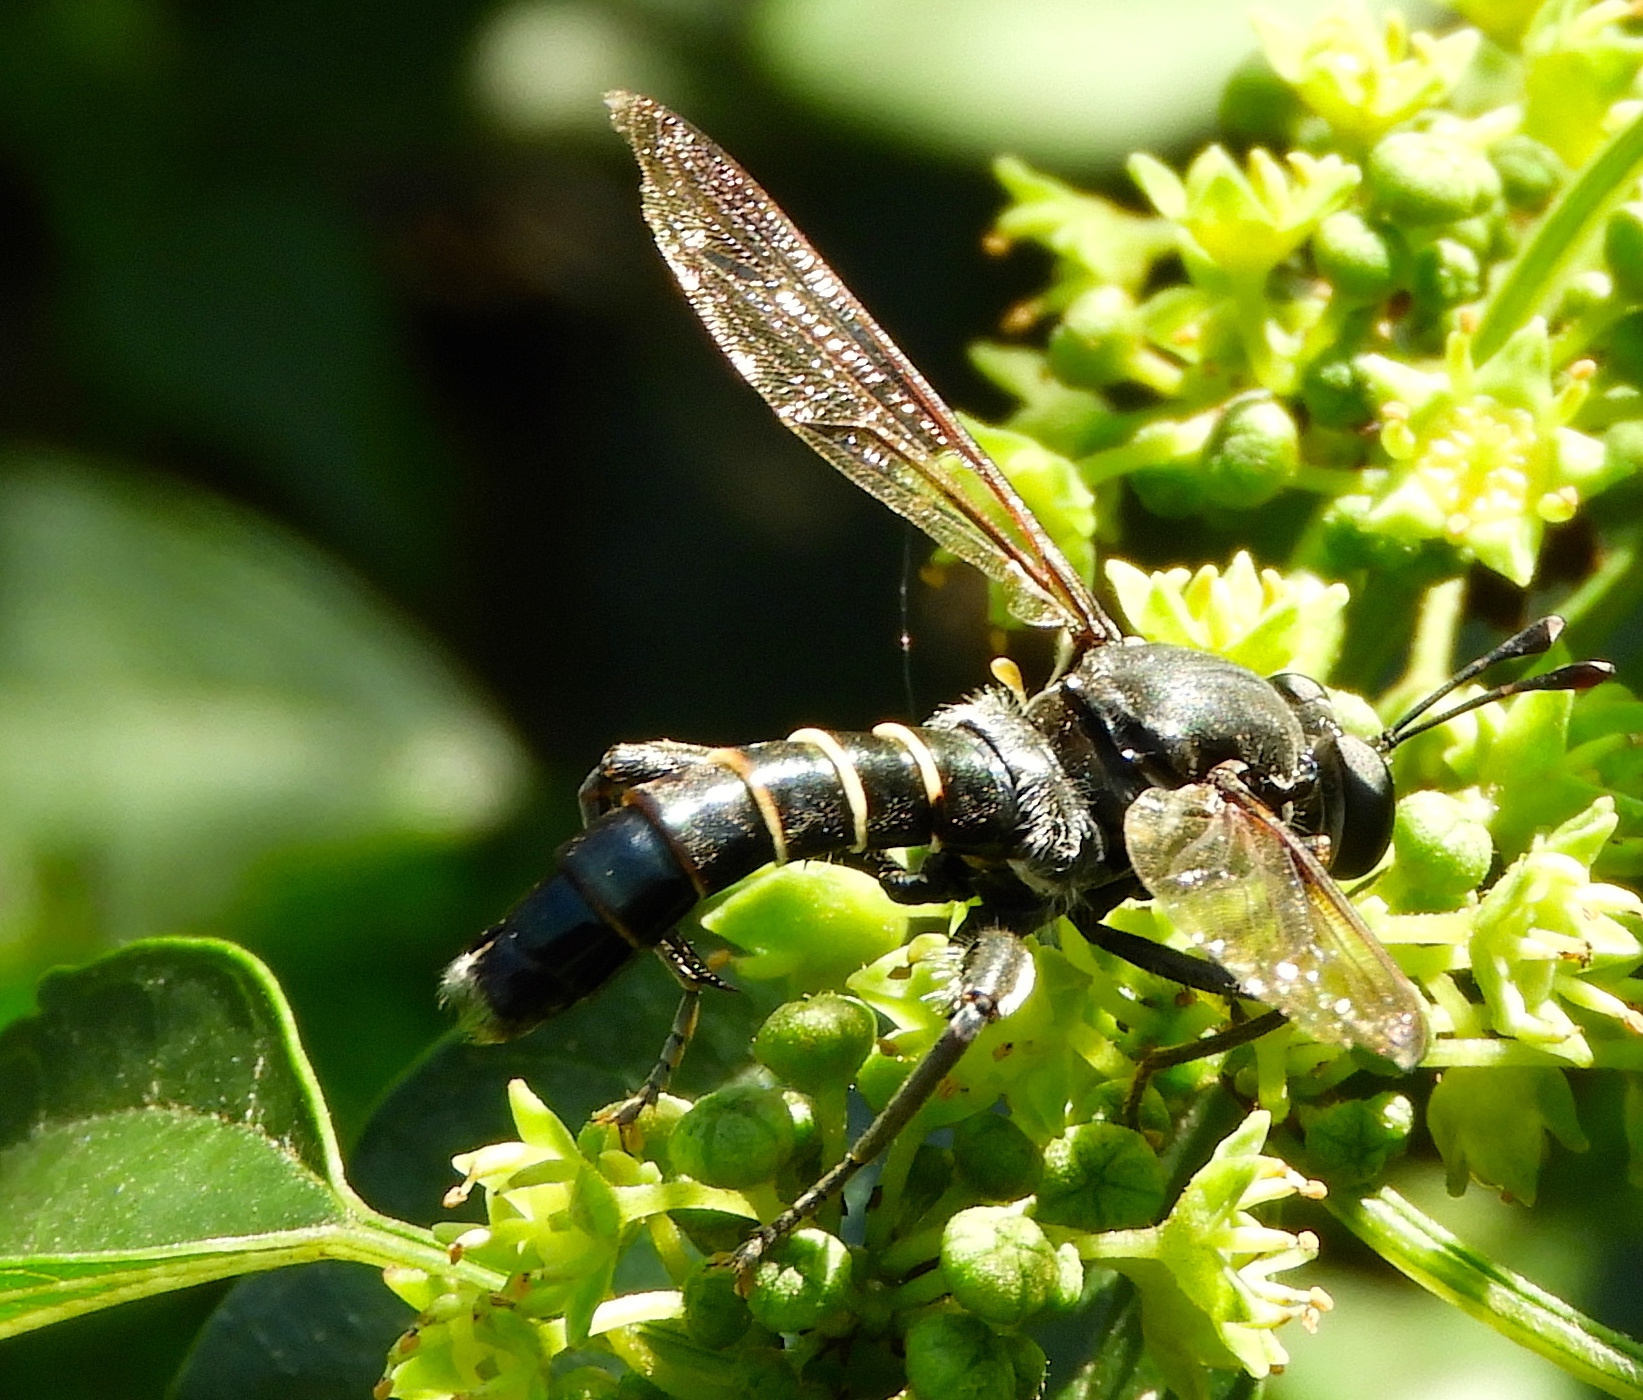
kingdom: Animalia
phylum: Arthropoda
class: Insecta
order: Diptera
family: Mydidae
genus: Mydas
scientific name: Mydas
